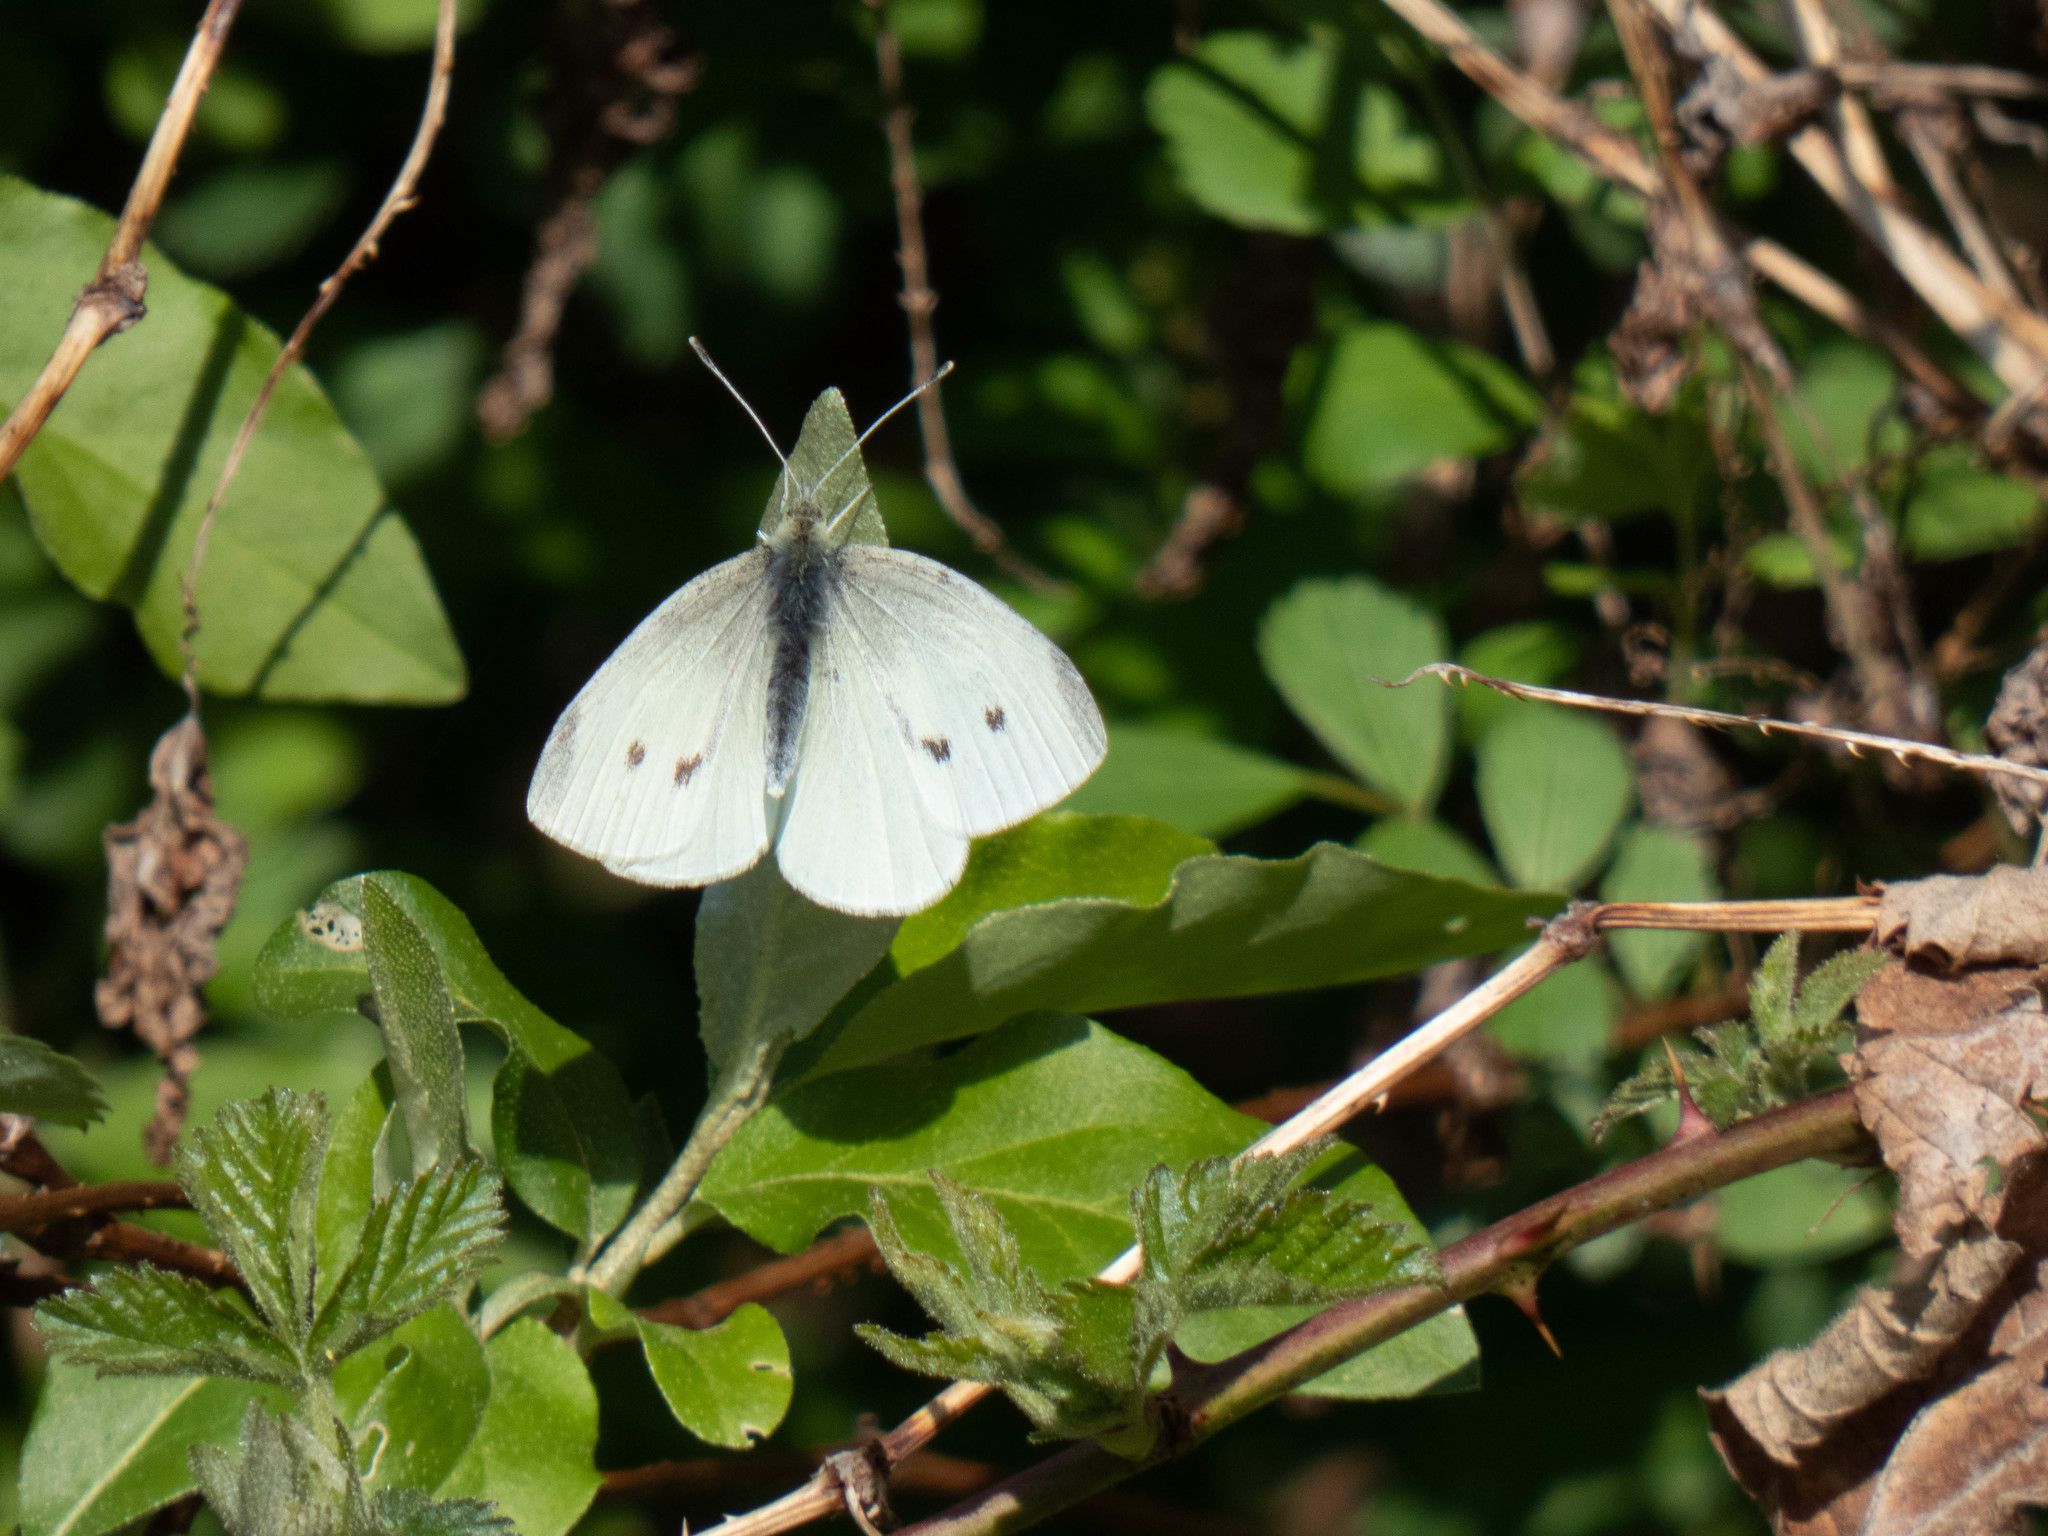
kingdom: Animalia
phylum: Arthropoda
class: Insecta
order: Lepidoptera
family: Pieridae
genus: Pieris
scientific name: Pieris rapae
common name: Small white
